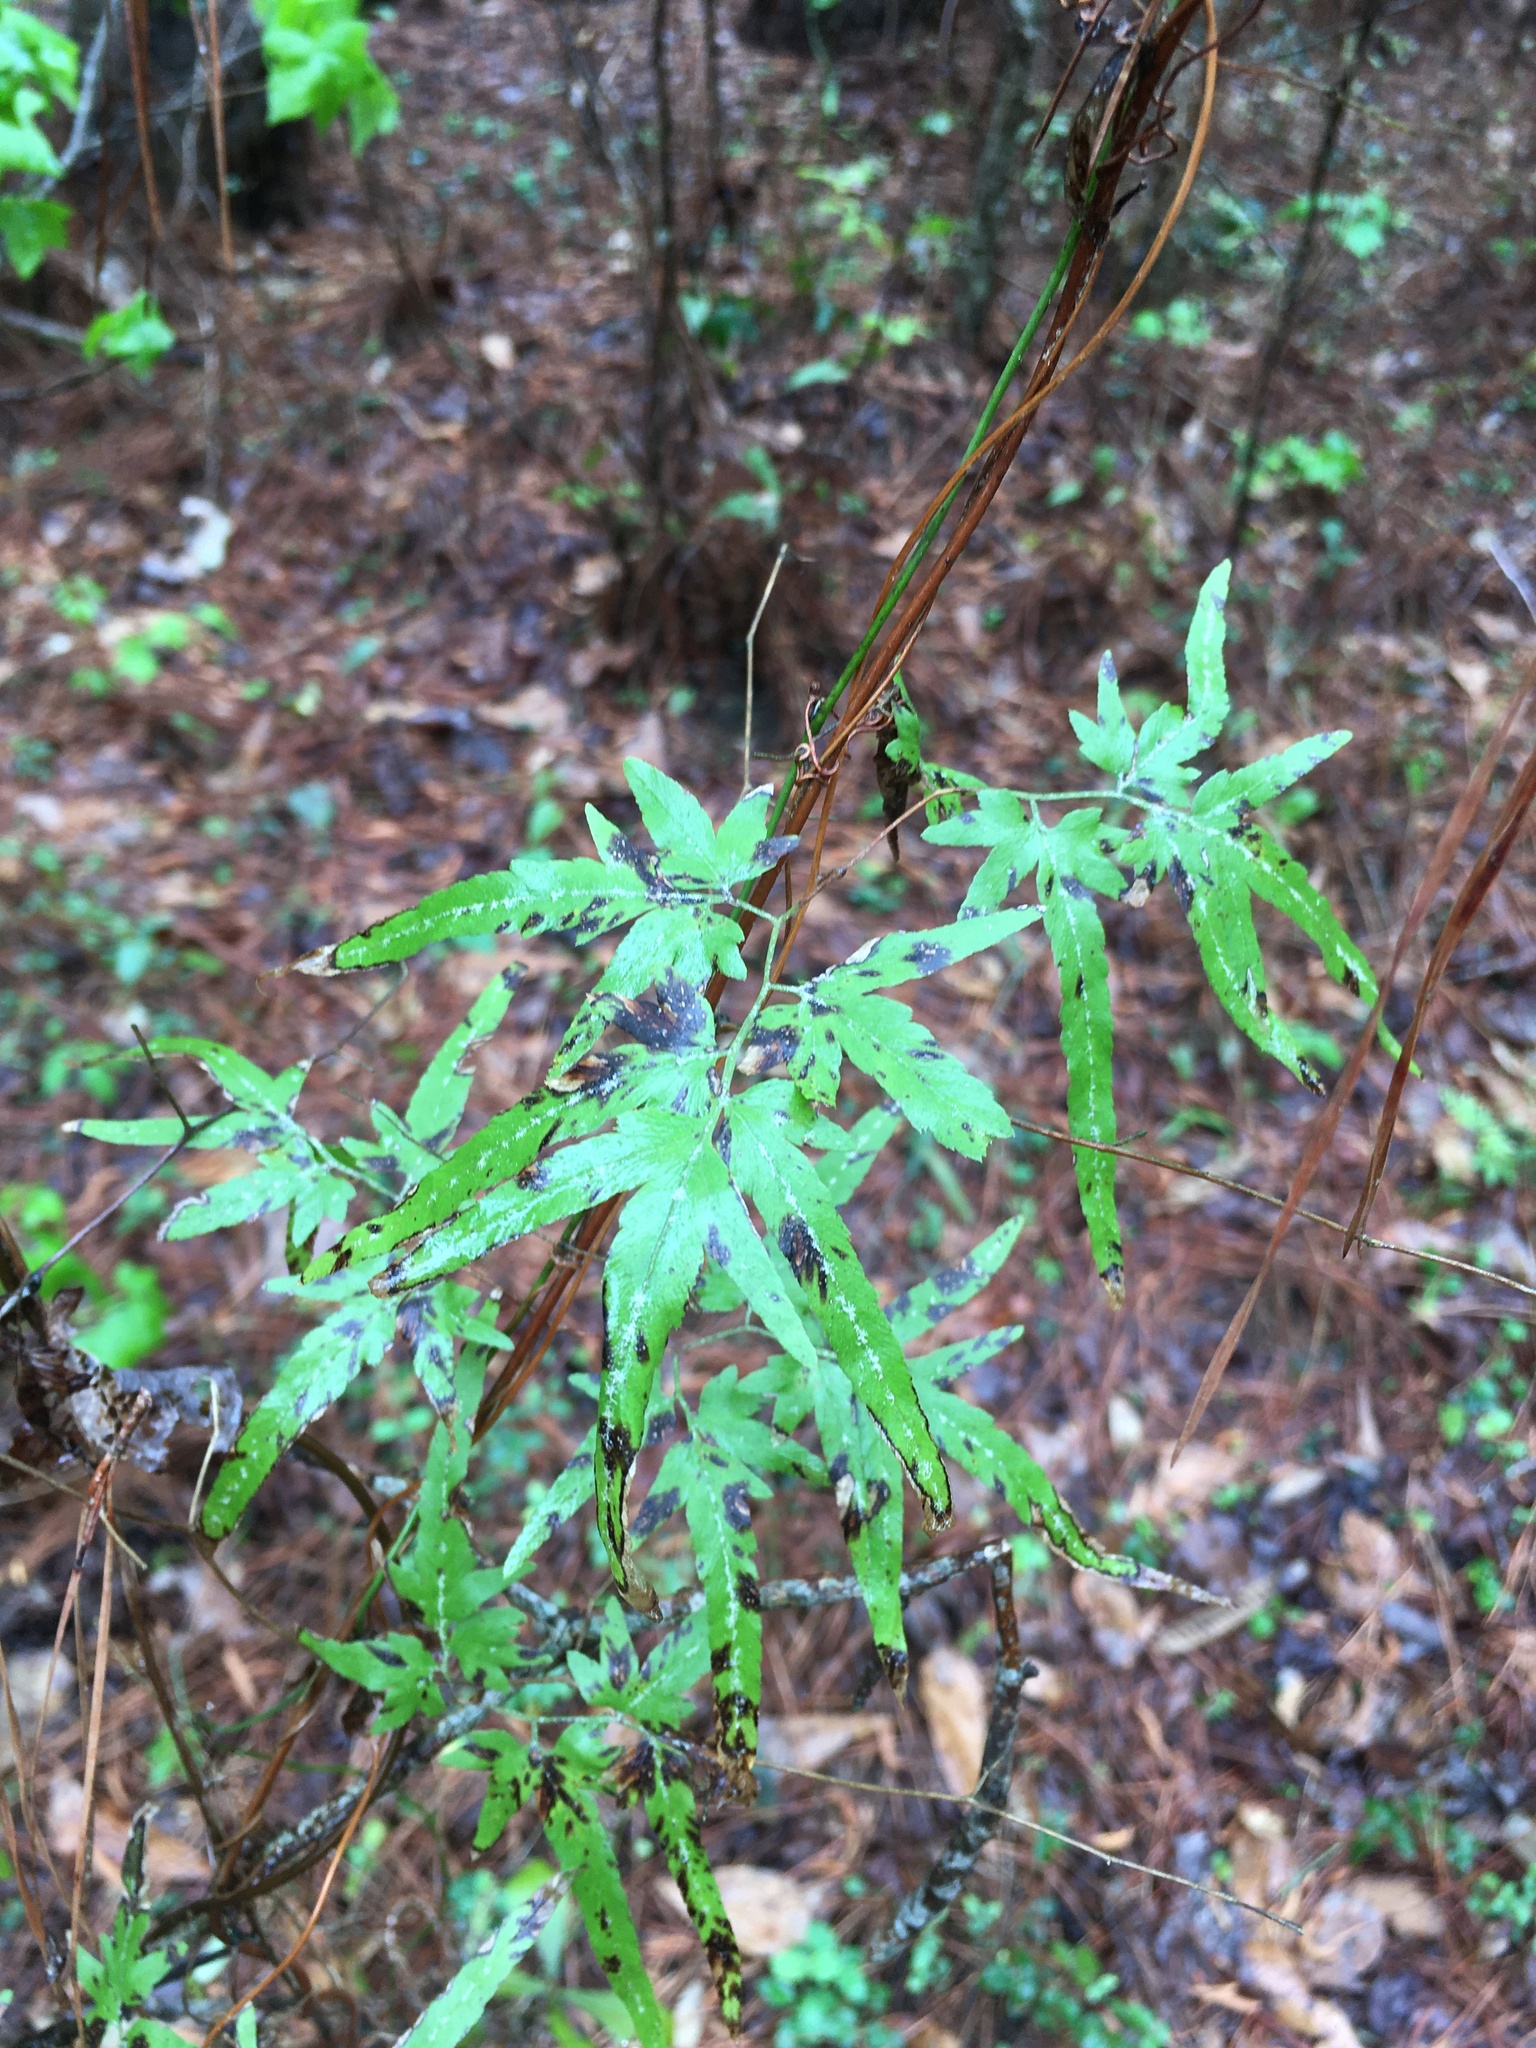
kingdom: Plantae
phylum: Tracheophyta
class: Polypodiopsida
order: Schizaeales
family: Lygodiaceae
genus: Lygodium
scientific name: Lygodium japonicum
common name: Japanese climbing fern
